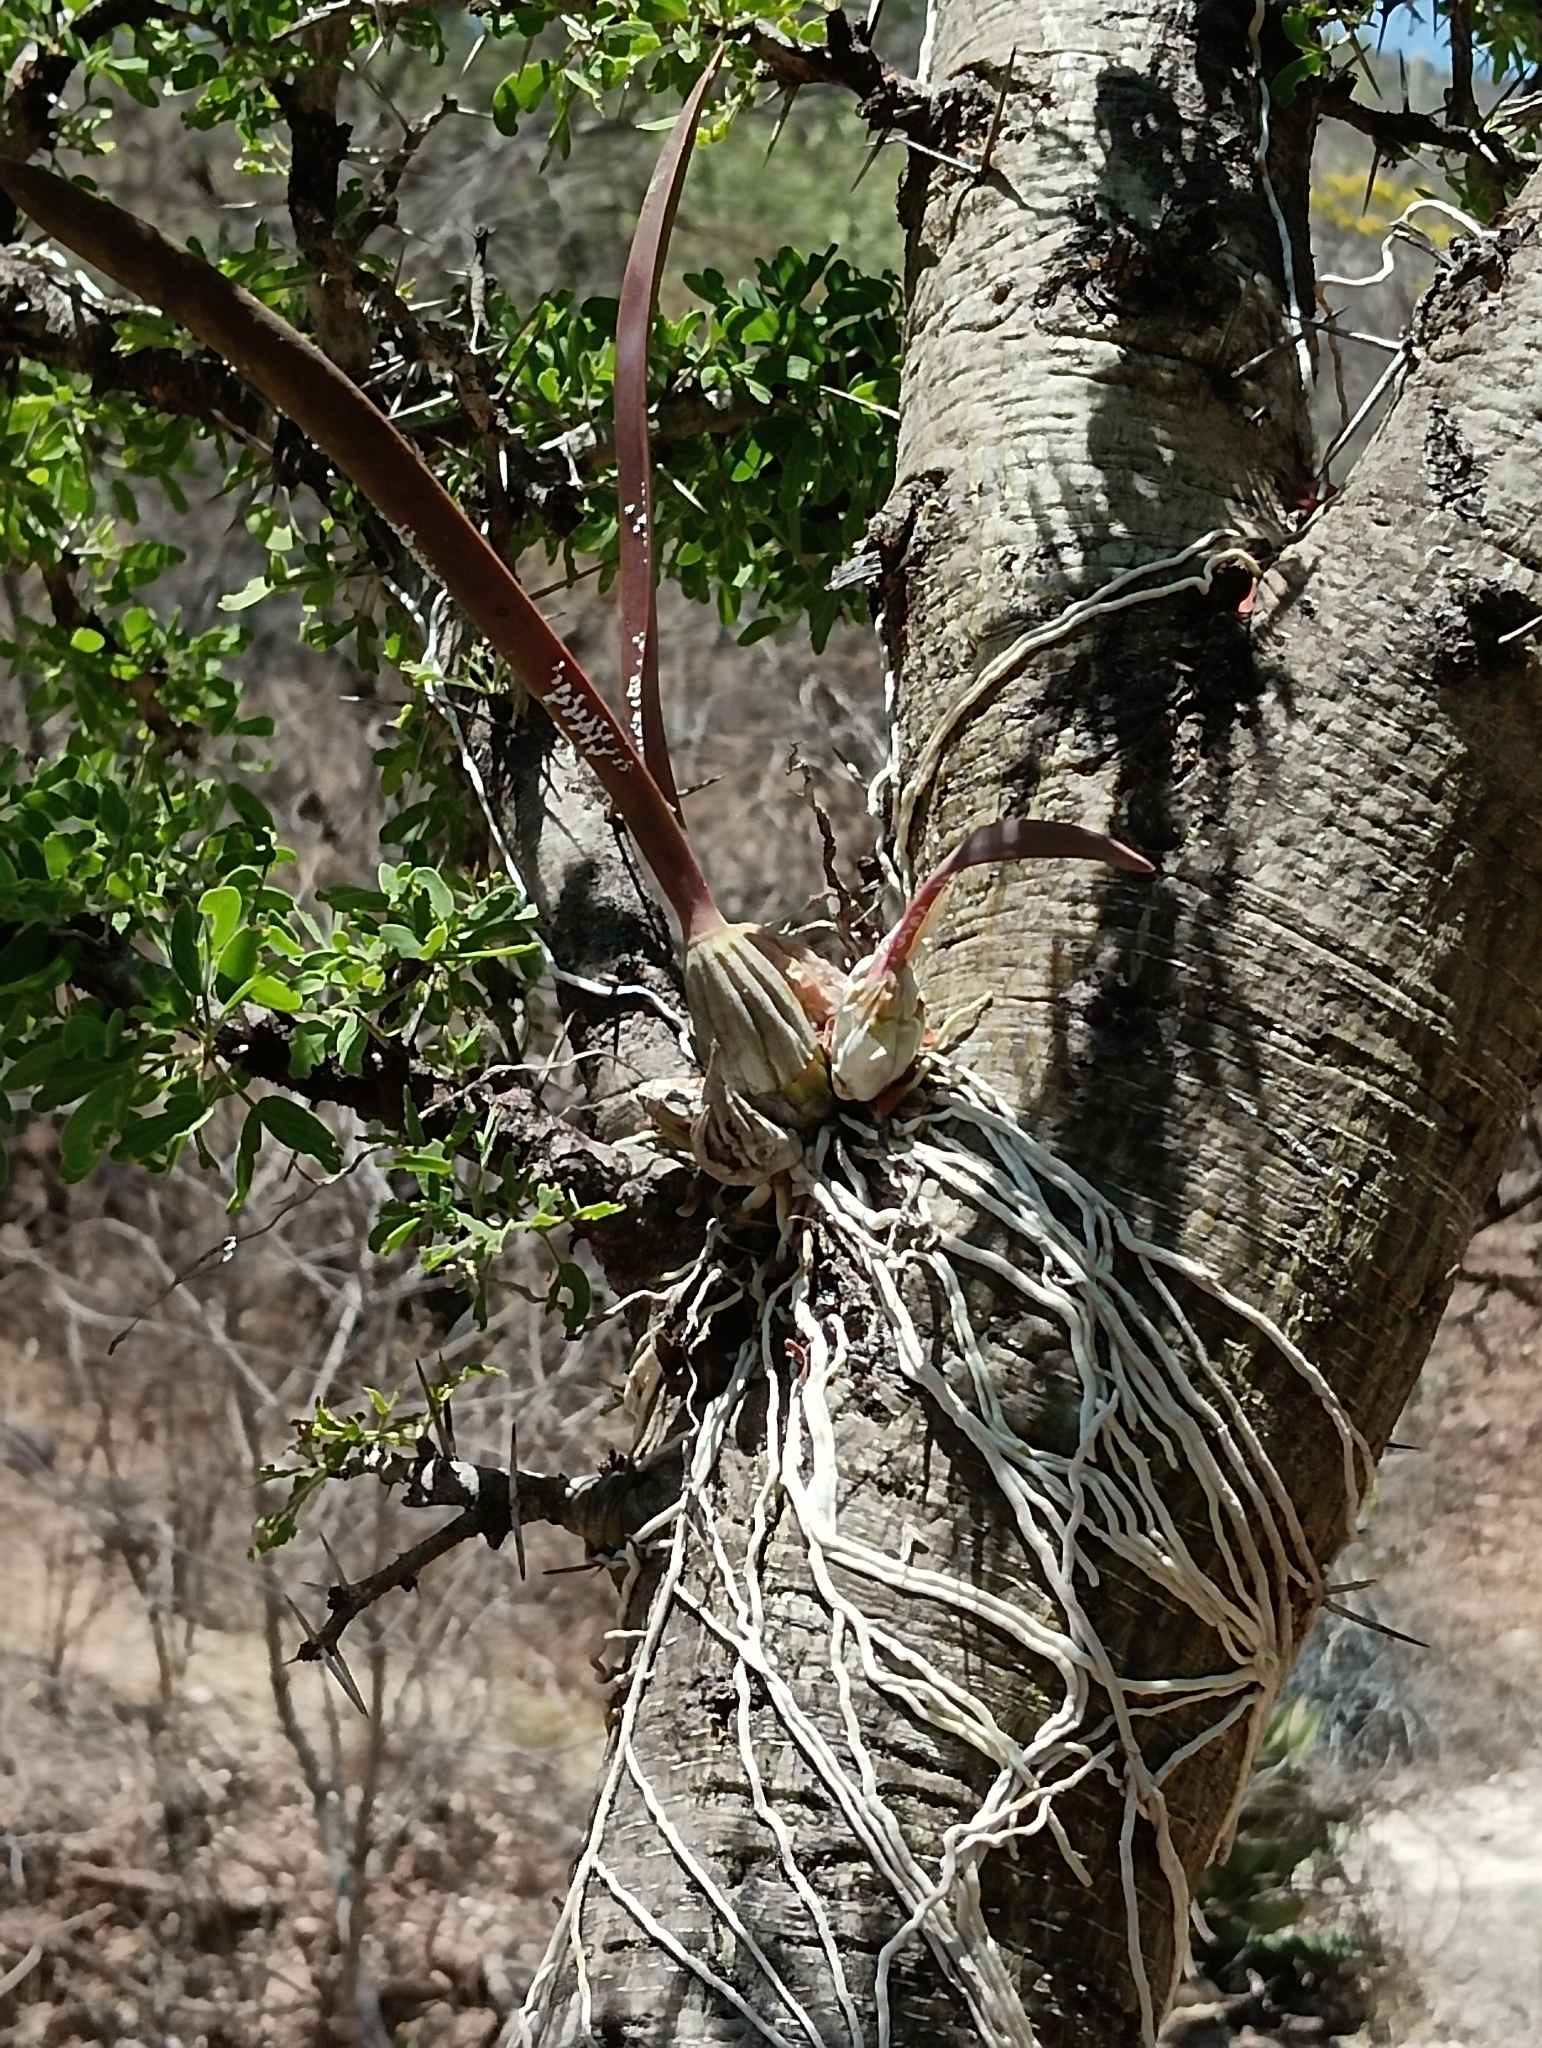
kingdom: Plantae
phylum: Tracheophyta
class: Liliopsida
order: Asparagales
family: Orchidaceae
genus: Laelia
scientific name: Laelia albida
